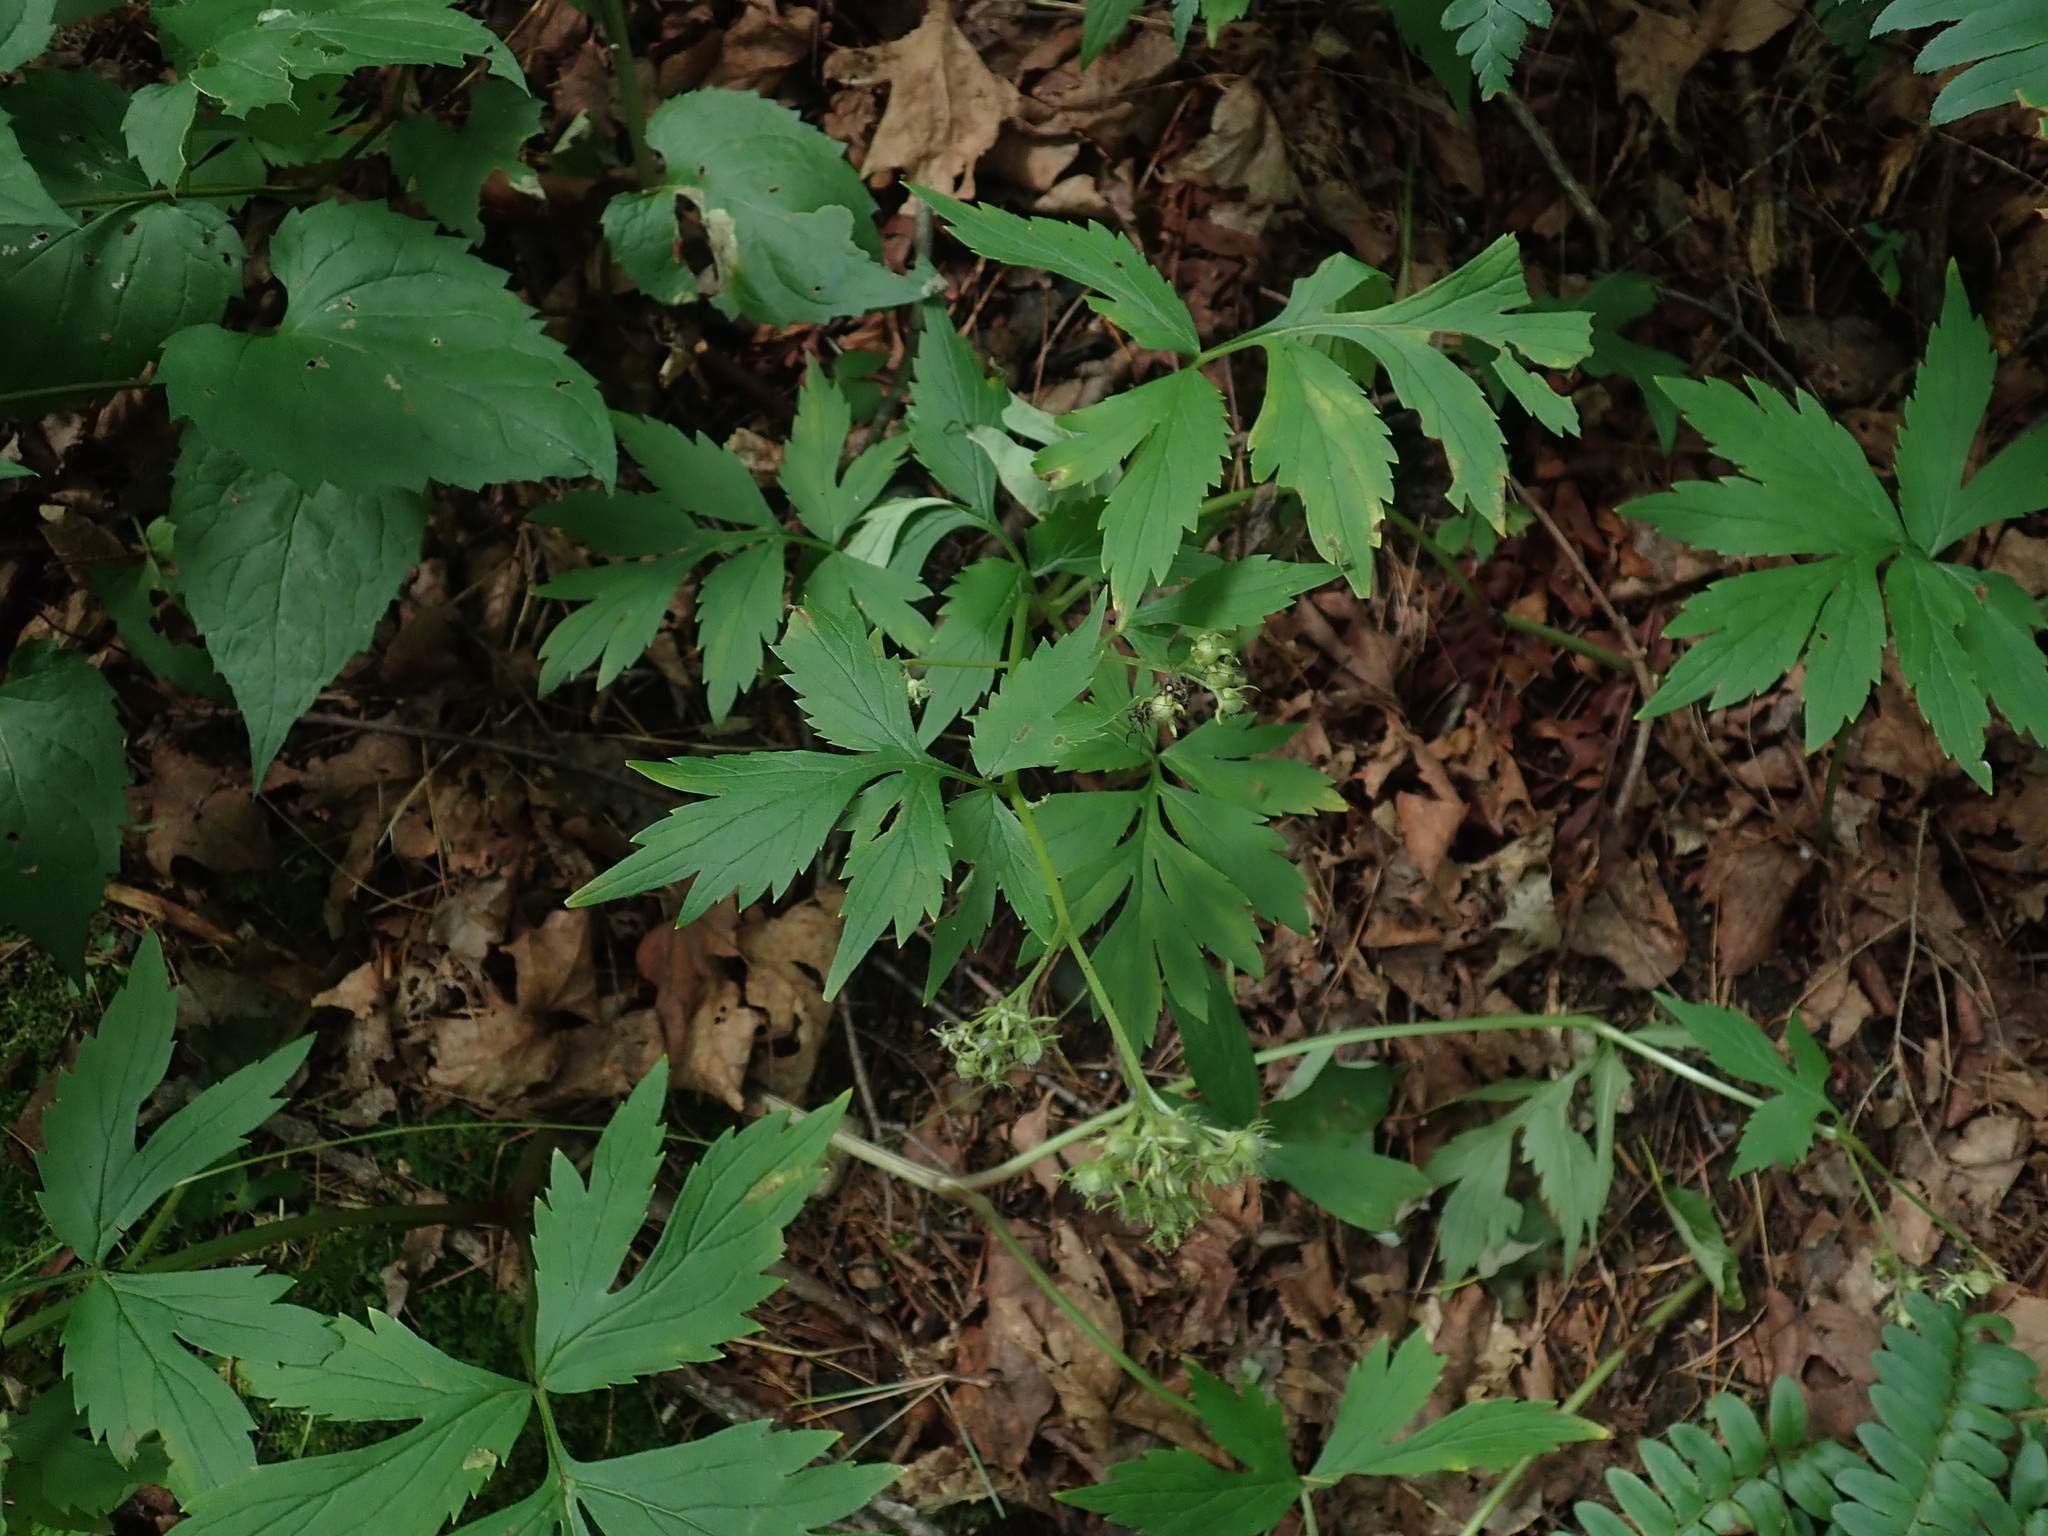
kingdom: Plantae
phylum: Tracheophyta
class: Magnoliopsida
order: Boraginales
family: Hydrophyllaceae
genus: Hydrophyllum
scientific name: Hydrophyllum virginianum
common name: Virginia waterleaf
